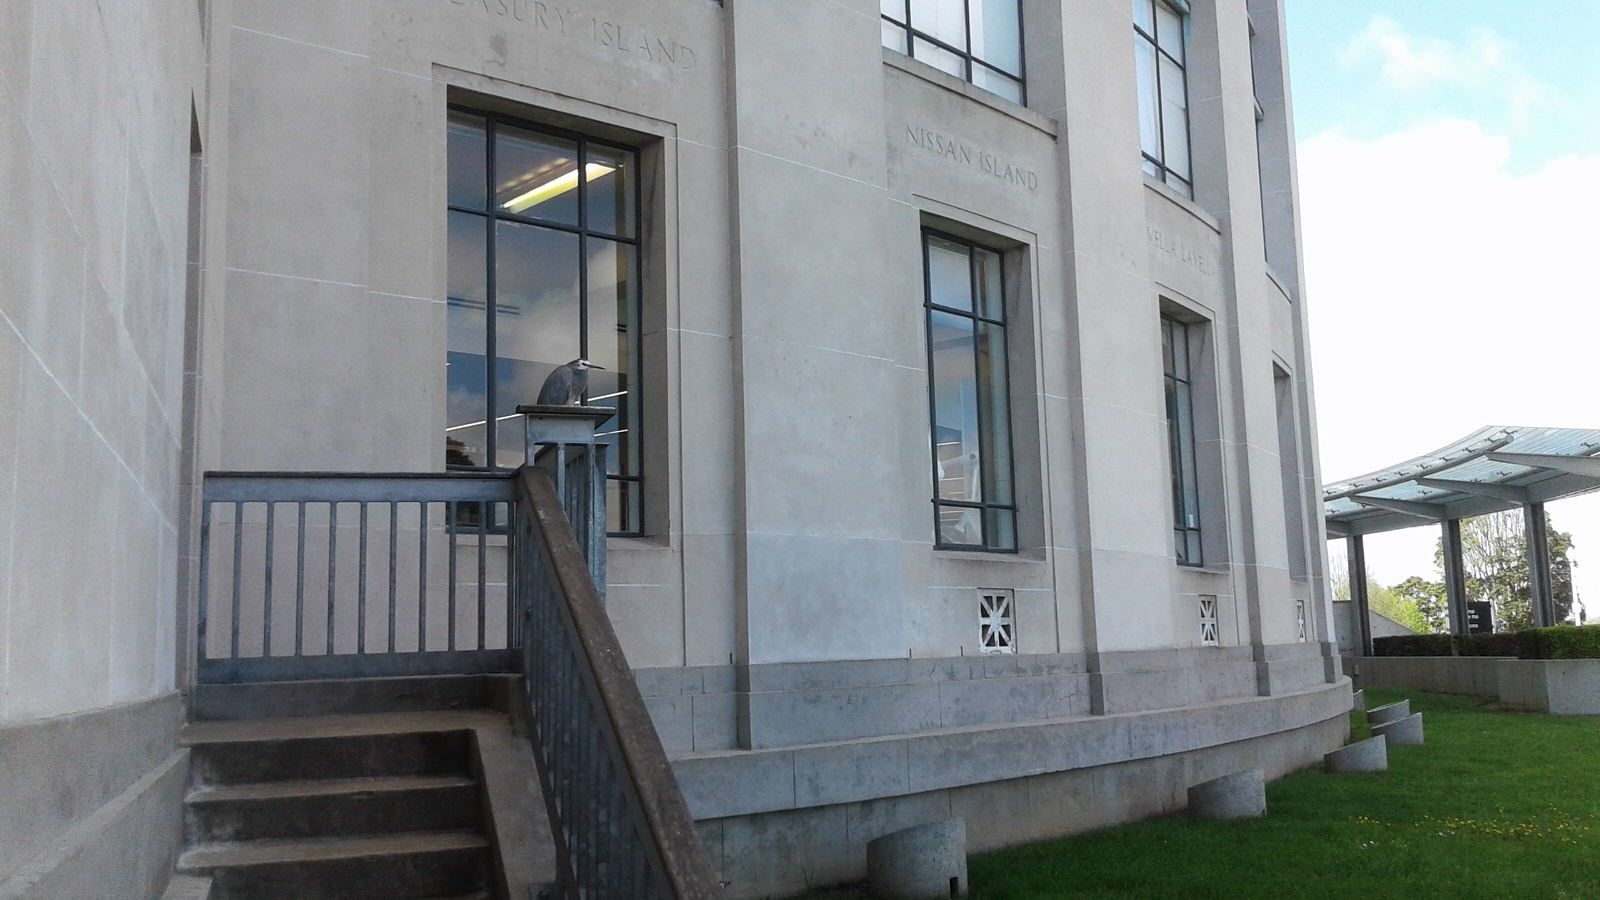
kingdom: Animalia
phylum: Chordata
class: Aves
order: Pelecaniformes
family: Ardeidae
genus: Egretta
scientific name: Egretta novaehollandiae
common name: White-faced heron
